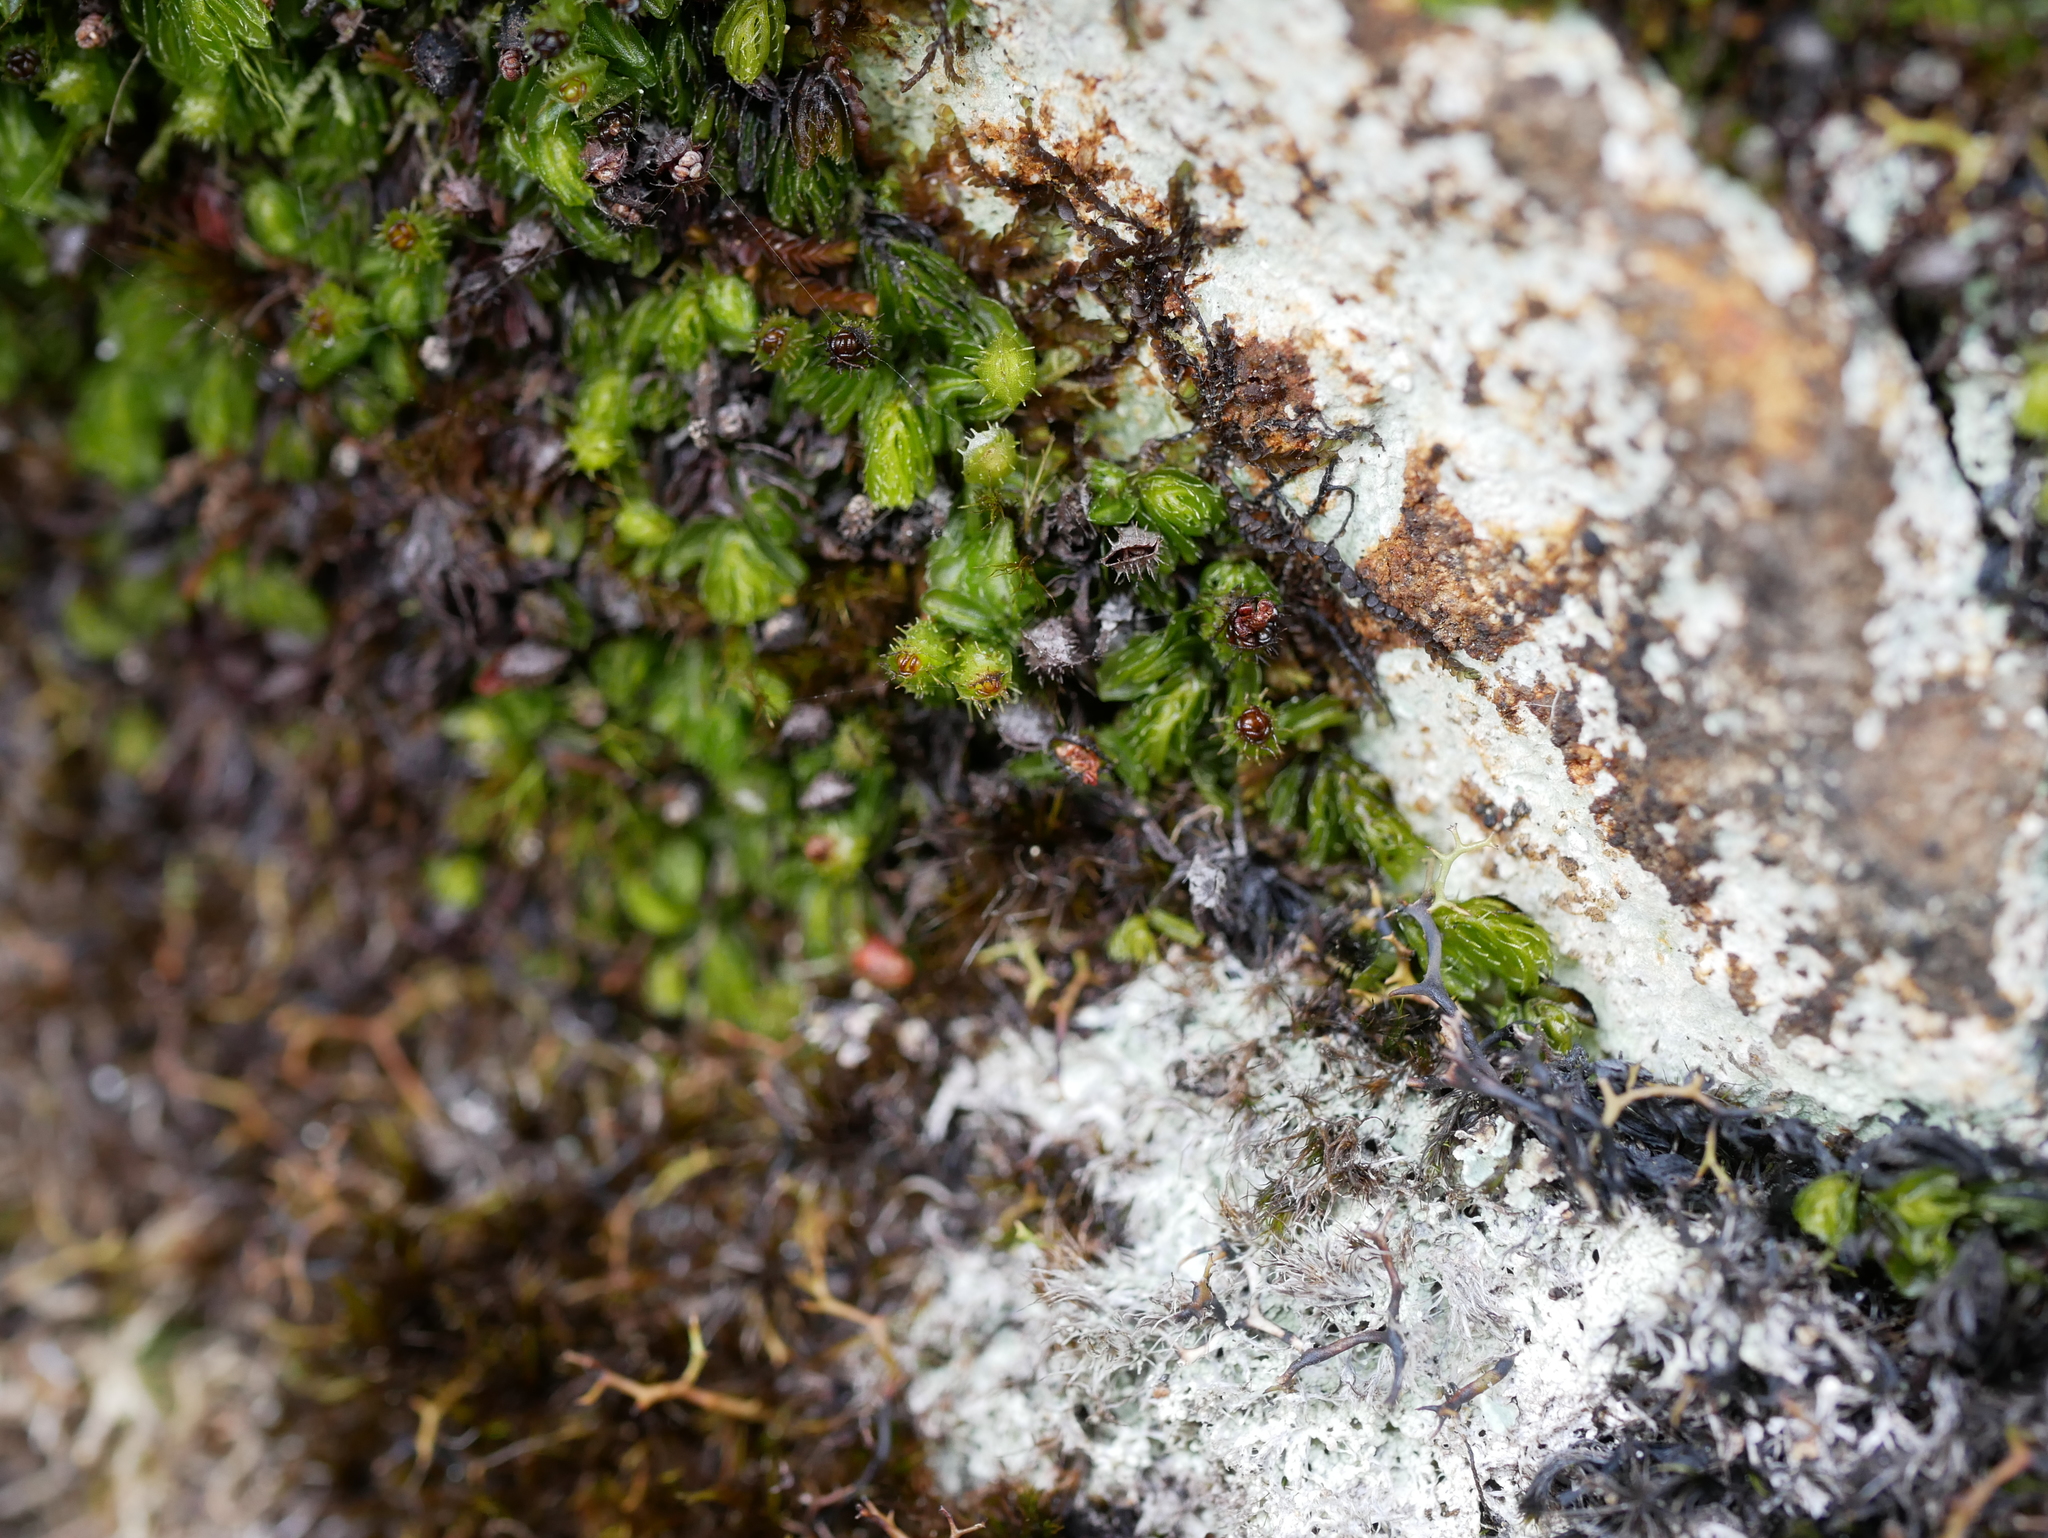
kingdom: Plantae
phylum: Tracheophyta
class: Polypodiopsida
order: Hymenophyllales
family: Hymenophyllaceae
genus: Hymenophyllum
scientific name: Hymenophyllum minimum
